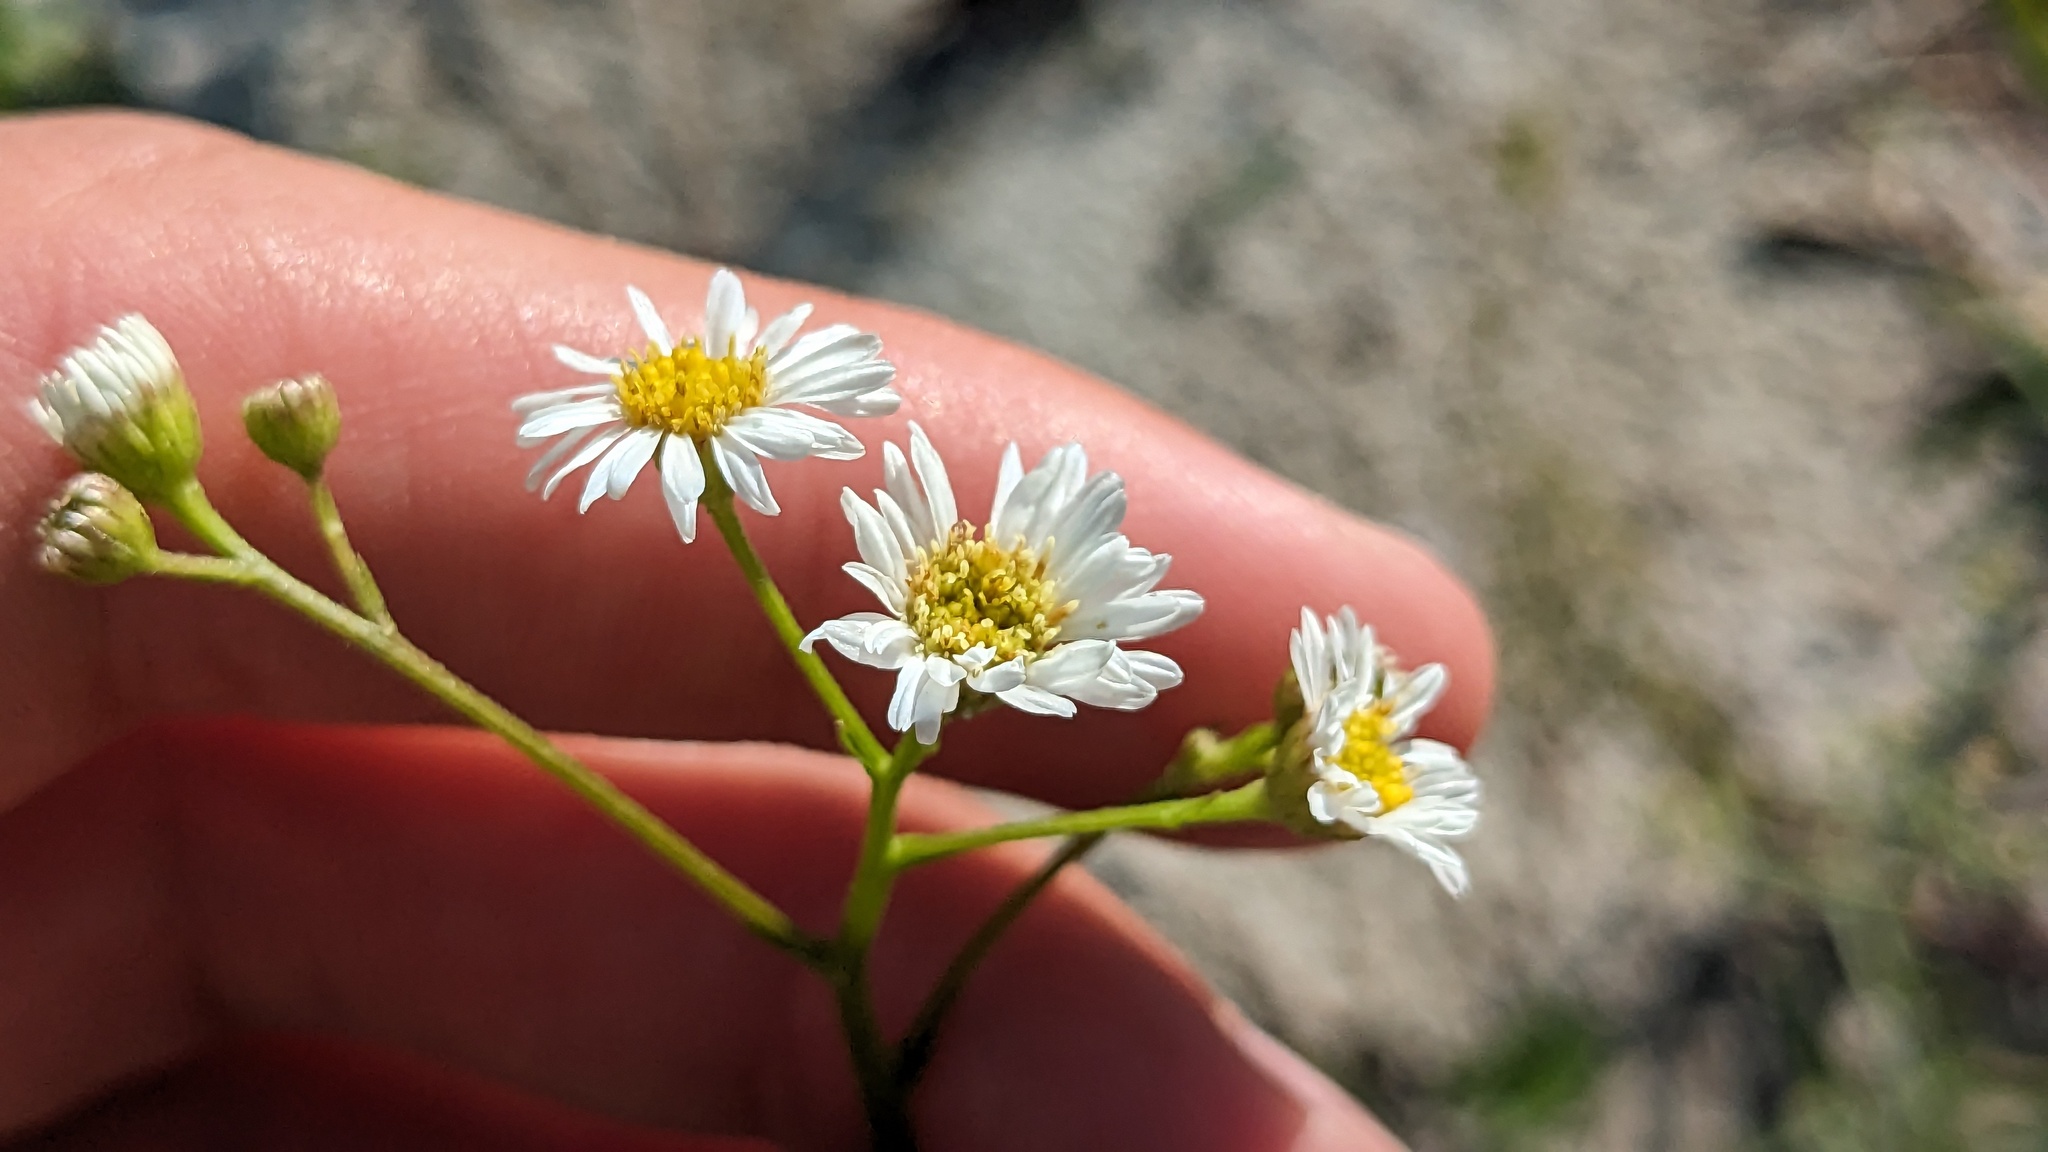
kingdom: Plantae
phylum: Tracheophyta
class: Magnoliopsida
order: Asterales
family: Asteraceae
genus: Erigeron
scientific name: Erigeron vernus
